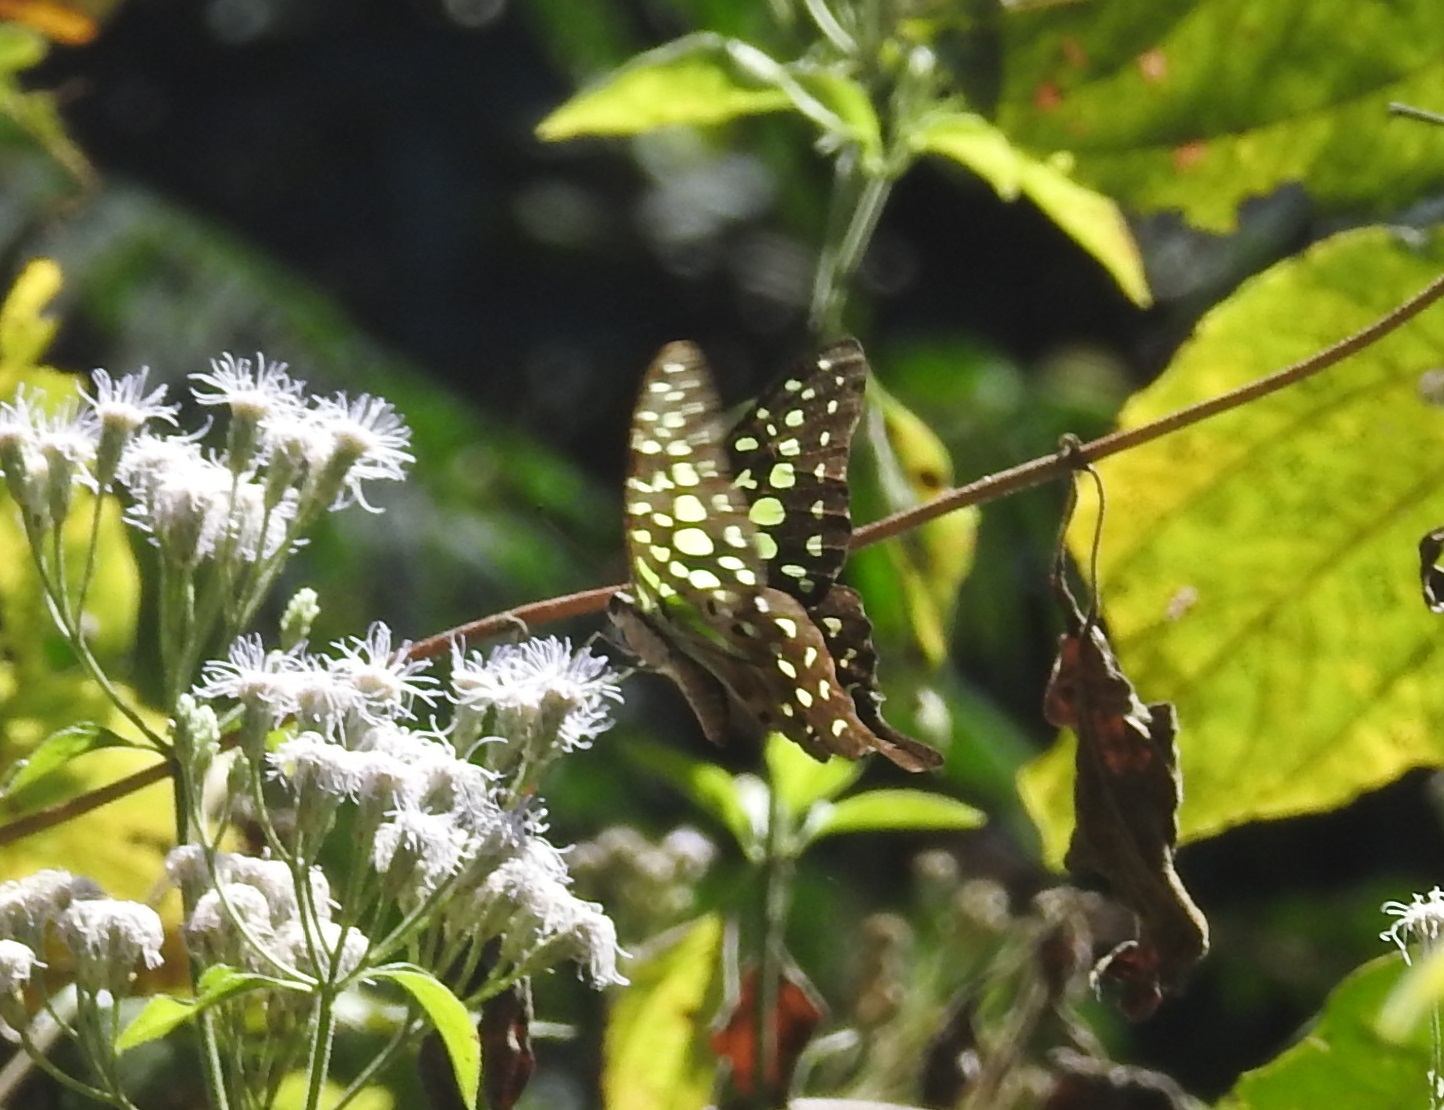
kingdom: Animalia
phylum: Arthropoda
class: Insecta
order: Lepidoptera
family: Papilionidae
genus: Graphium
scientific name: Graphium agamemnon
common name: Tailed jay
